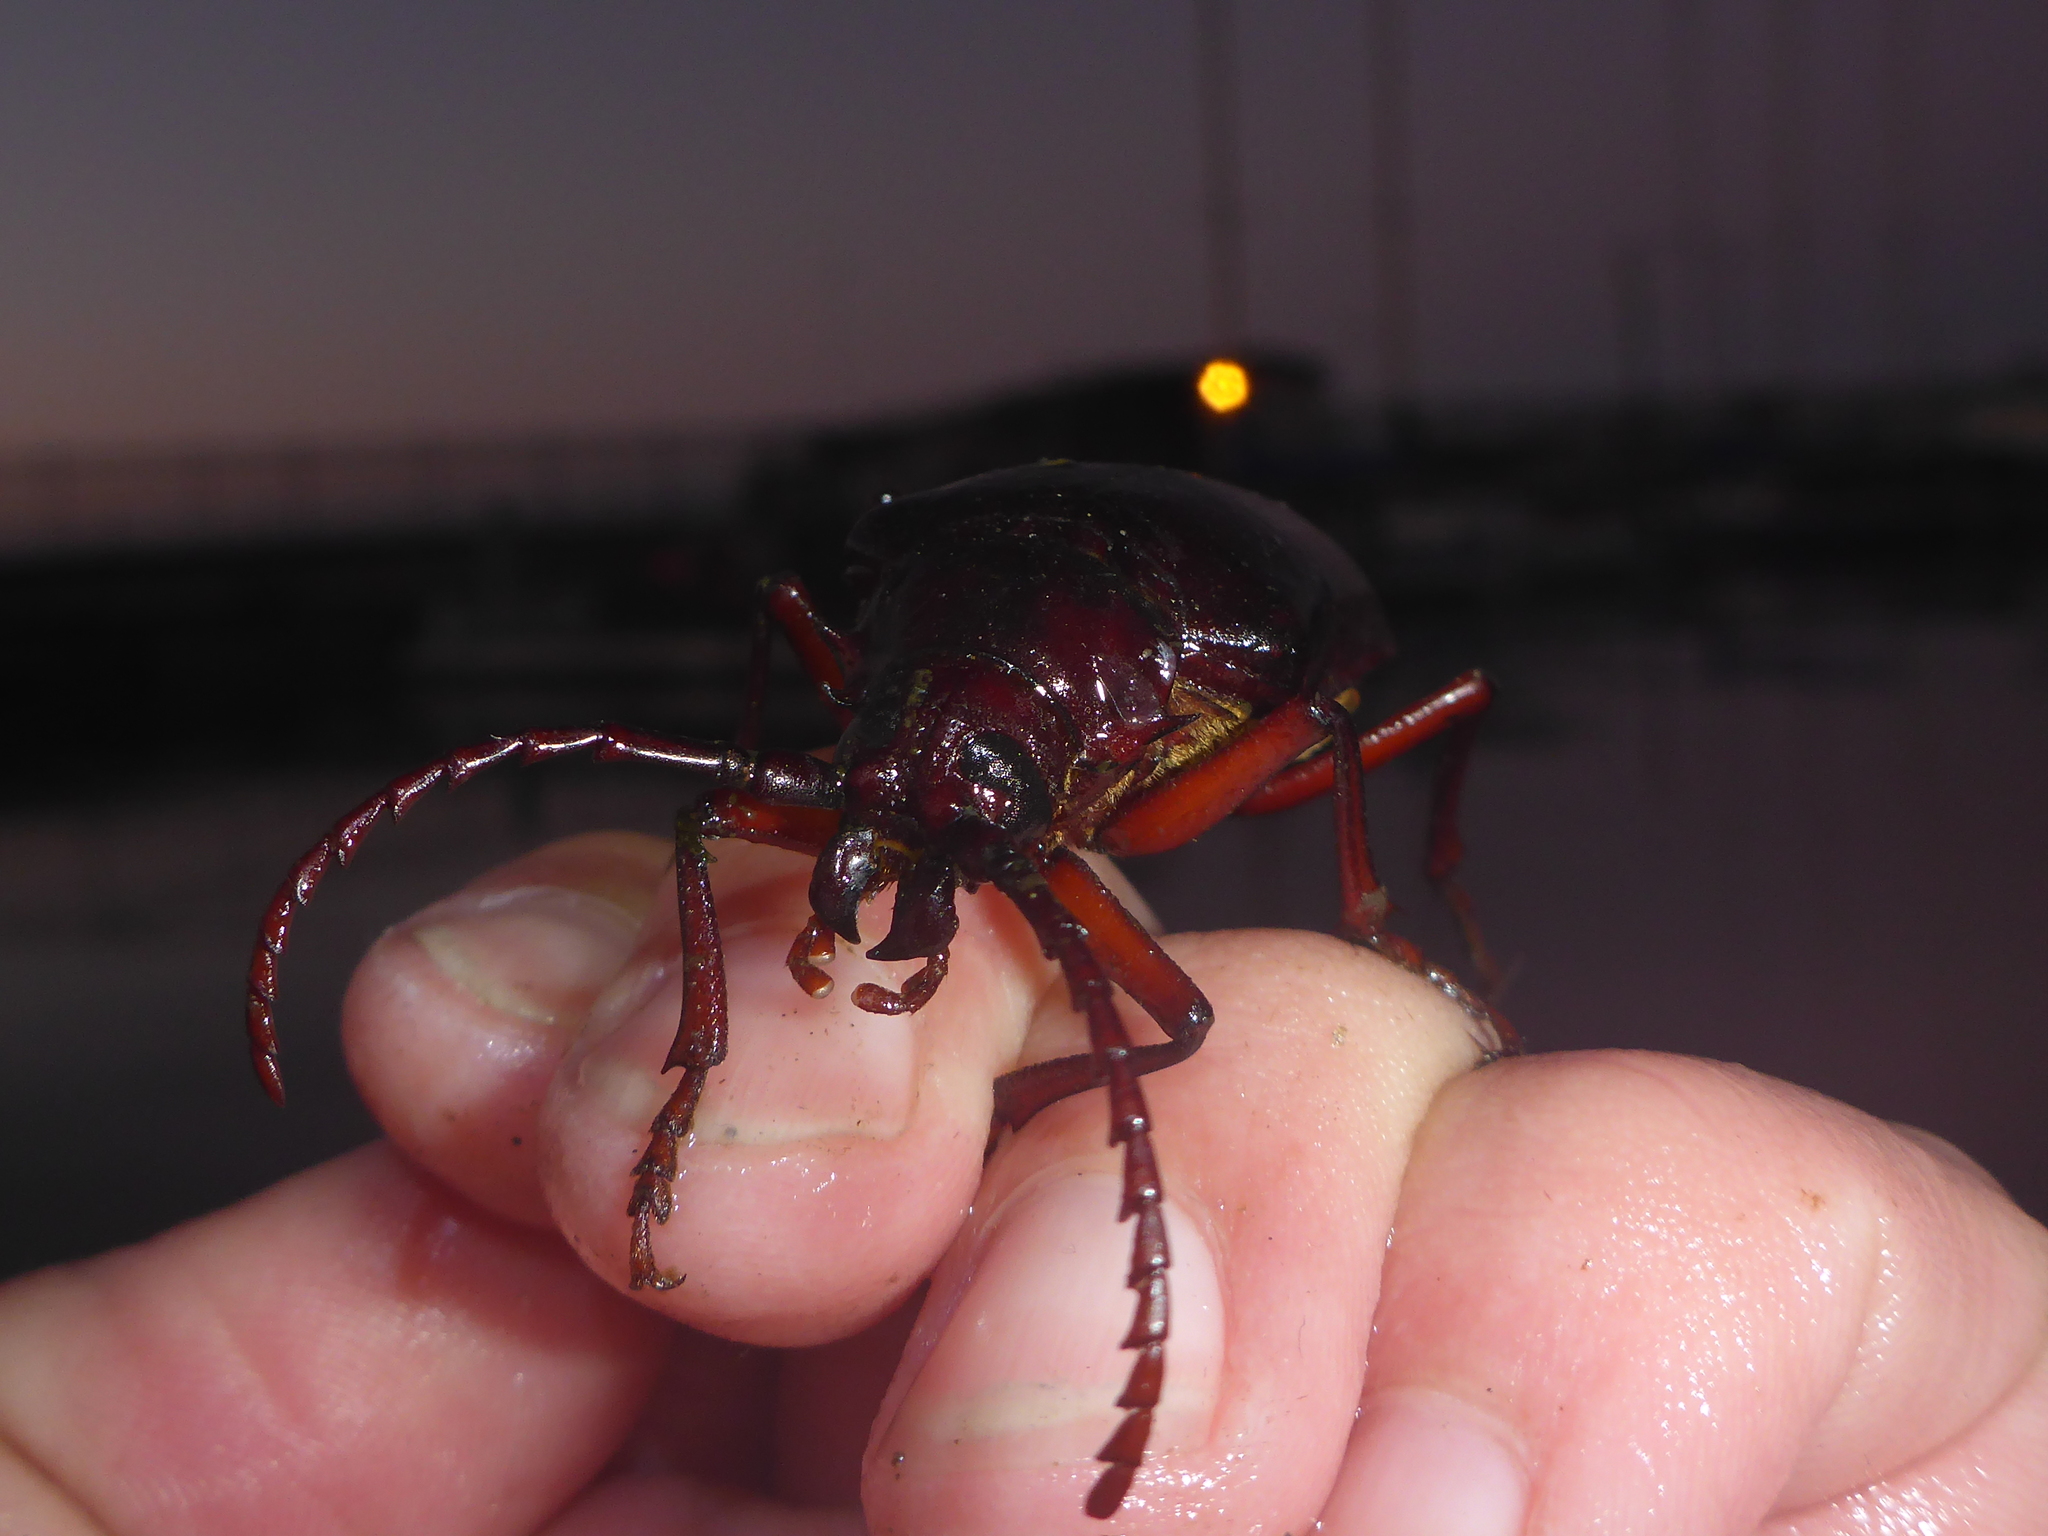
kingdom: Animalia
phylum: Arthropoda
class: Insecta
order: Coleoptera
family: Cerambycidae
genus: Prionus
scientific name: Prionus californicus
